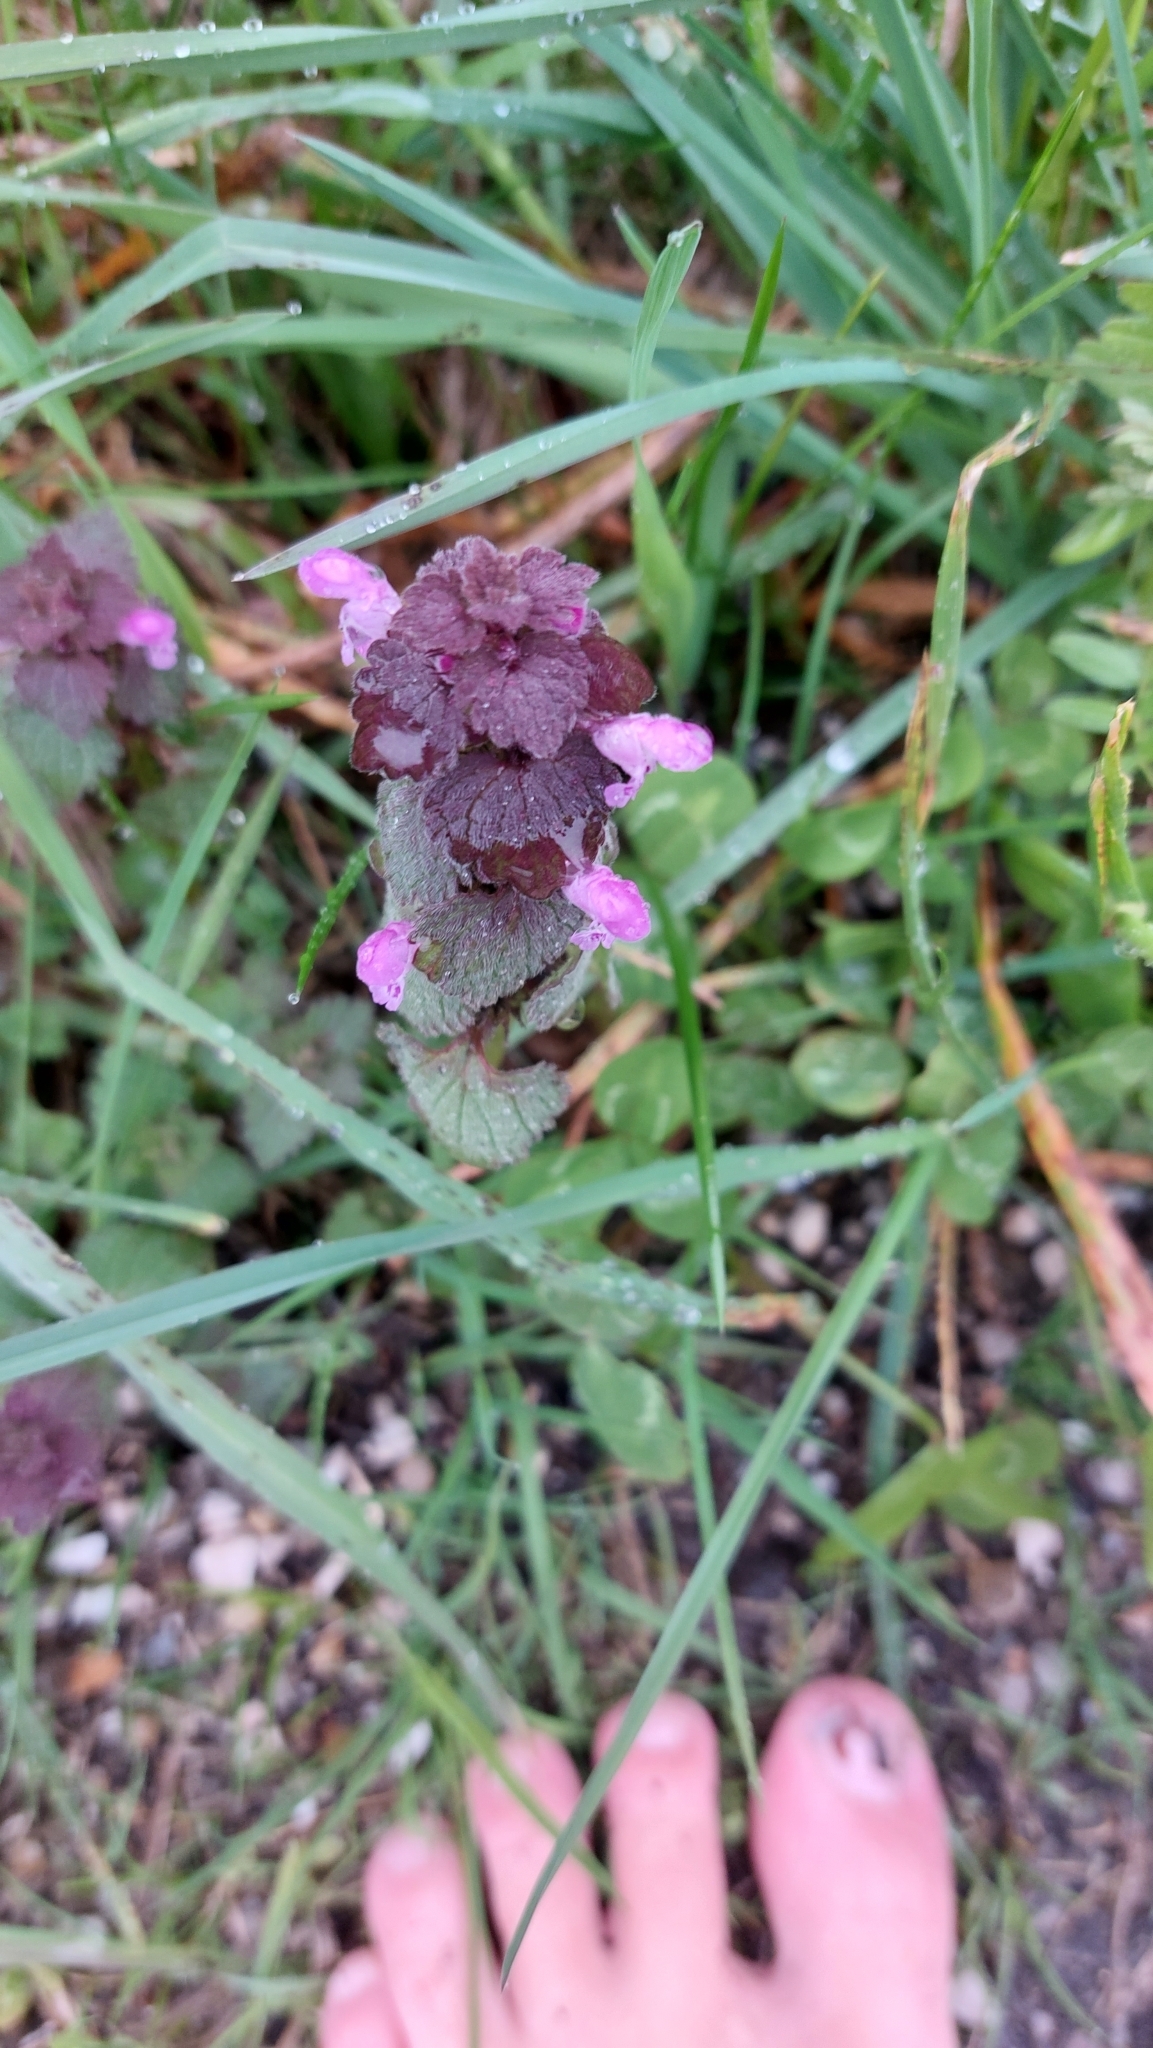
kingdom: Plantae
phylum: Tracheophyta
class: Magnoliopsida
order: Lamiales
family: Lamiaceae
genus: Lamium
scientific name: Lamium purpureum
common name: Red dead-nettle
